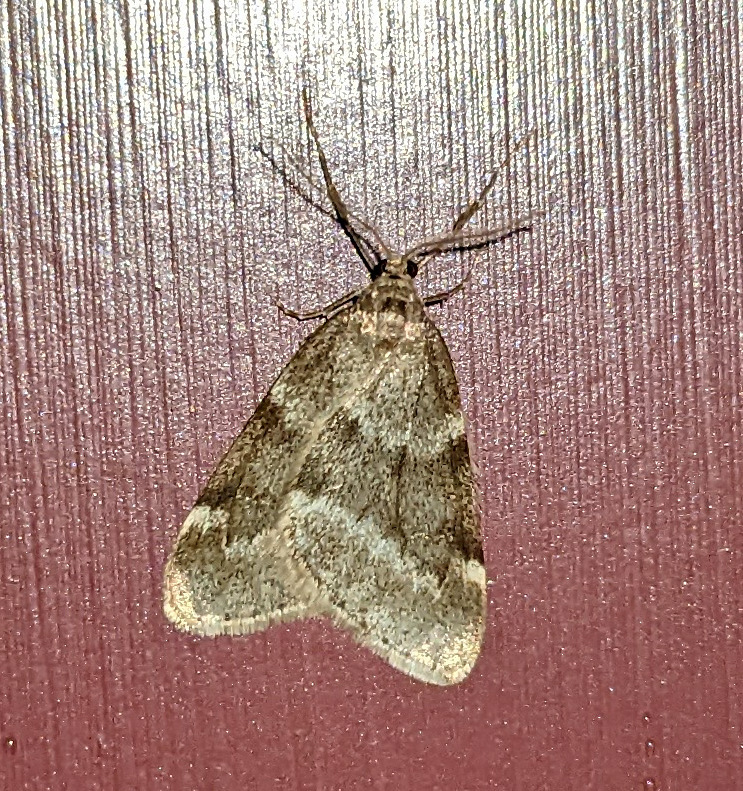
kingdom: Animalia
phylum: Arthropoda
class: Insecta
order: Lepidoptera
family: Geometridae
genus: Alsophila
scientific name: Alsophila pometaria
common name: Fall cankerworm
